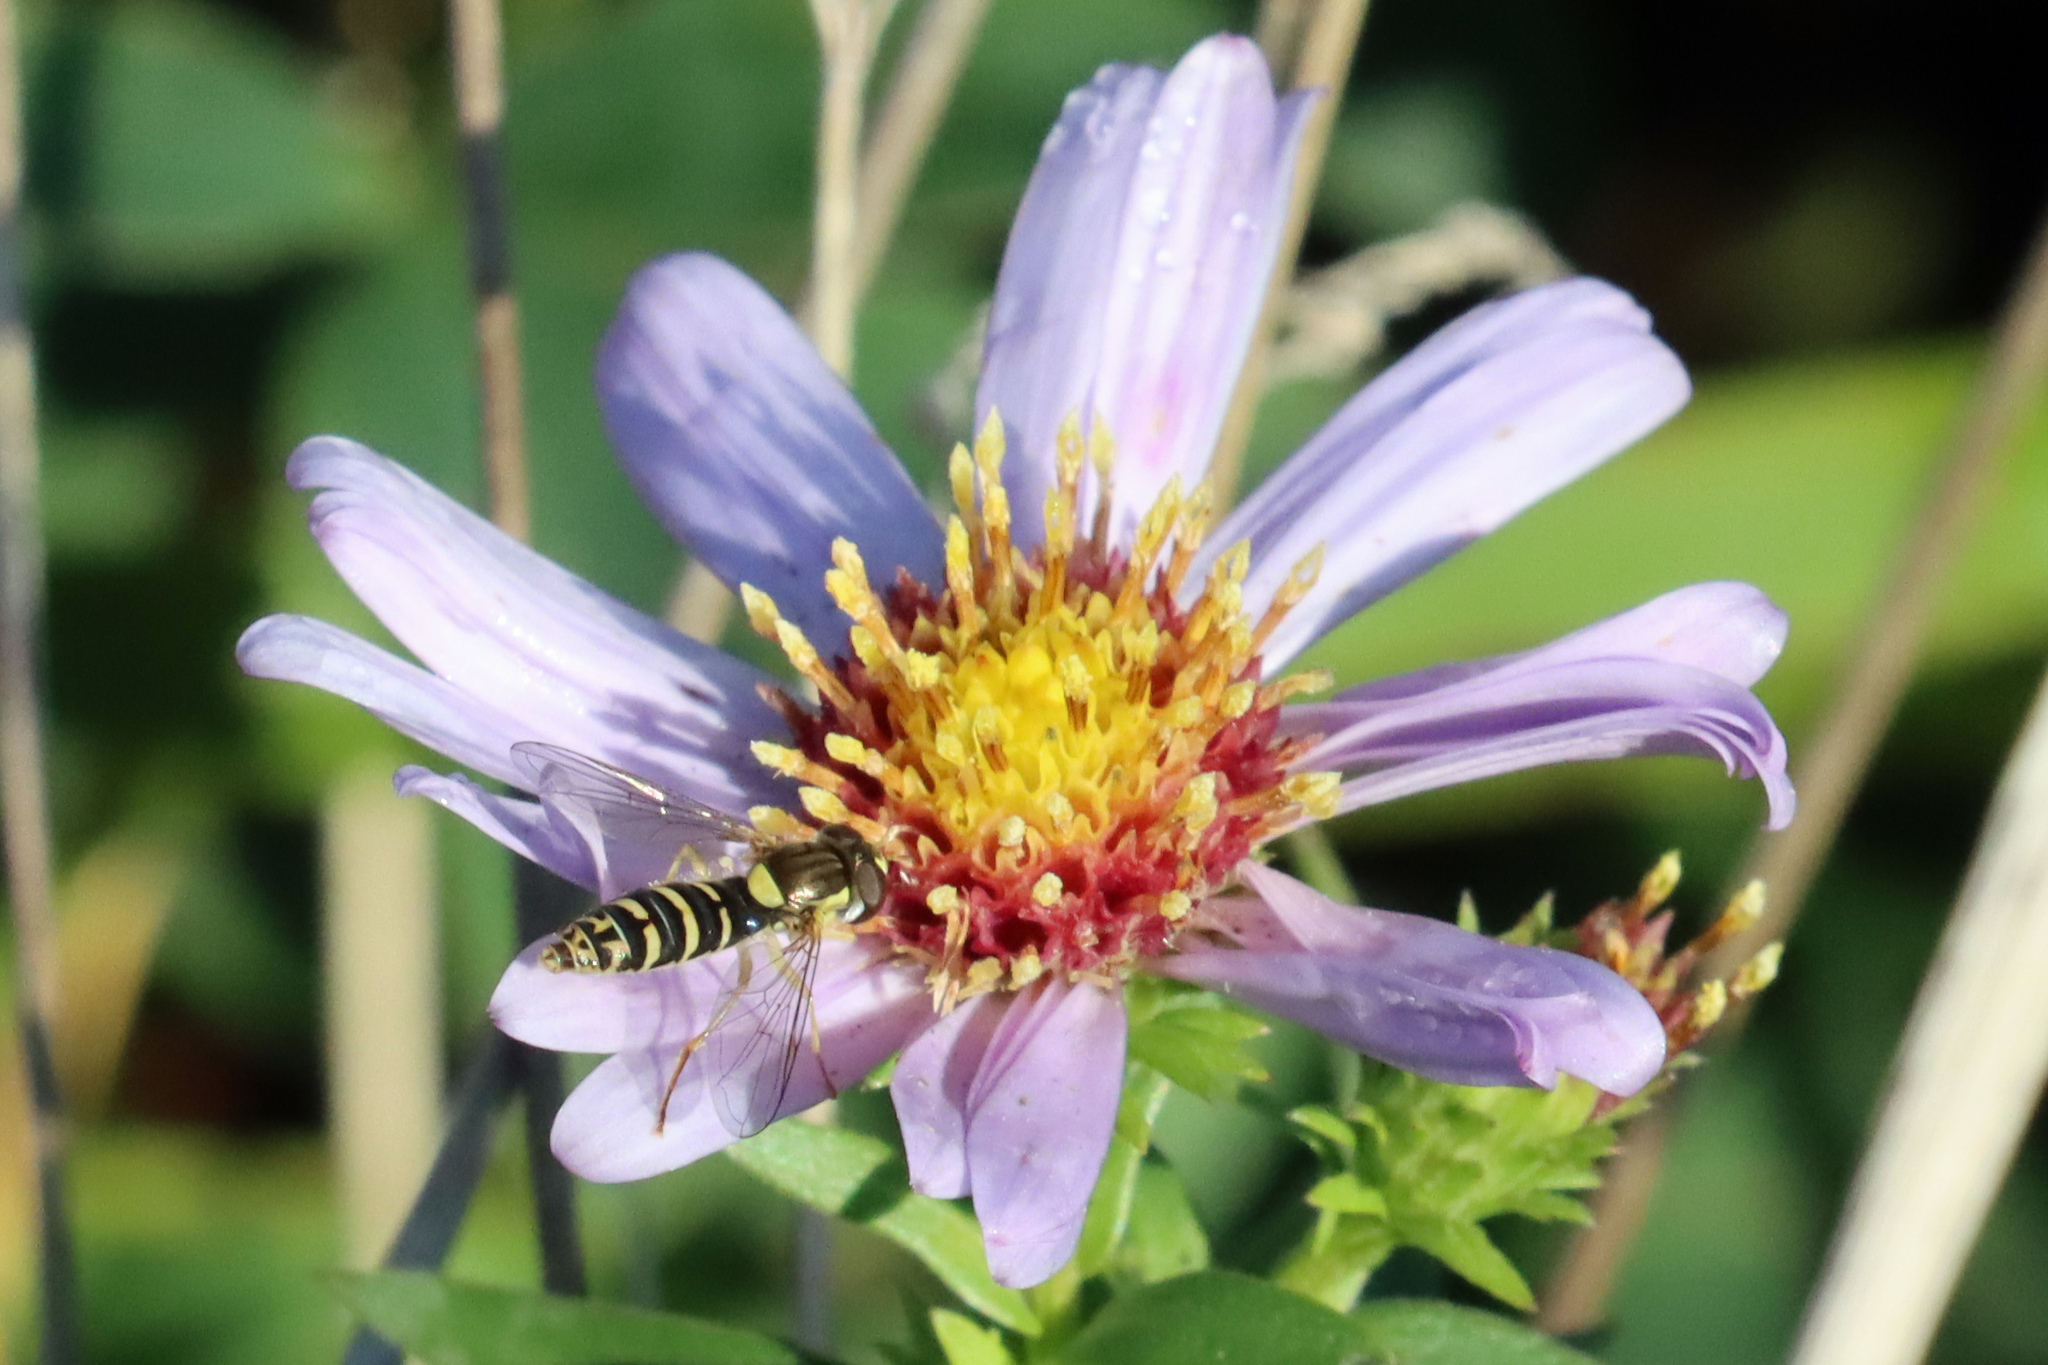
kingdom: Animalia
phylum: Arthropoda
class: Insecta
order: Diptera
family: Syrphidae
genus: Sphaerophoria
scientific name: Sphaerophoria
